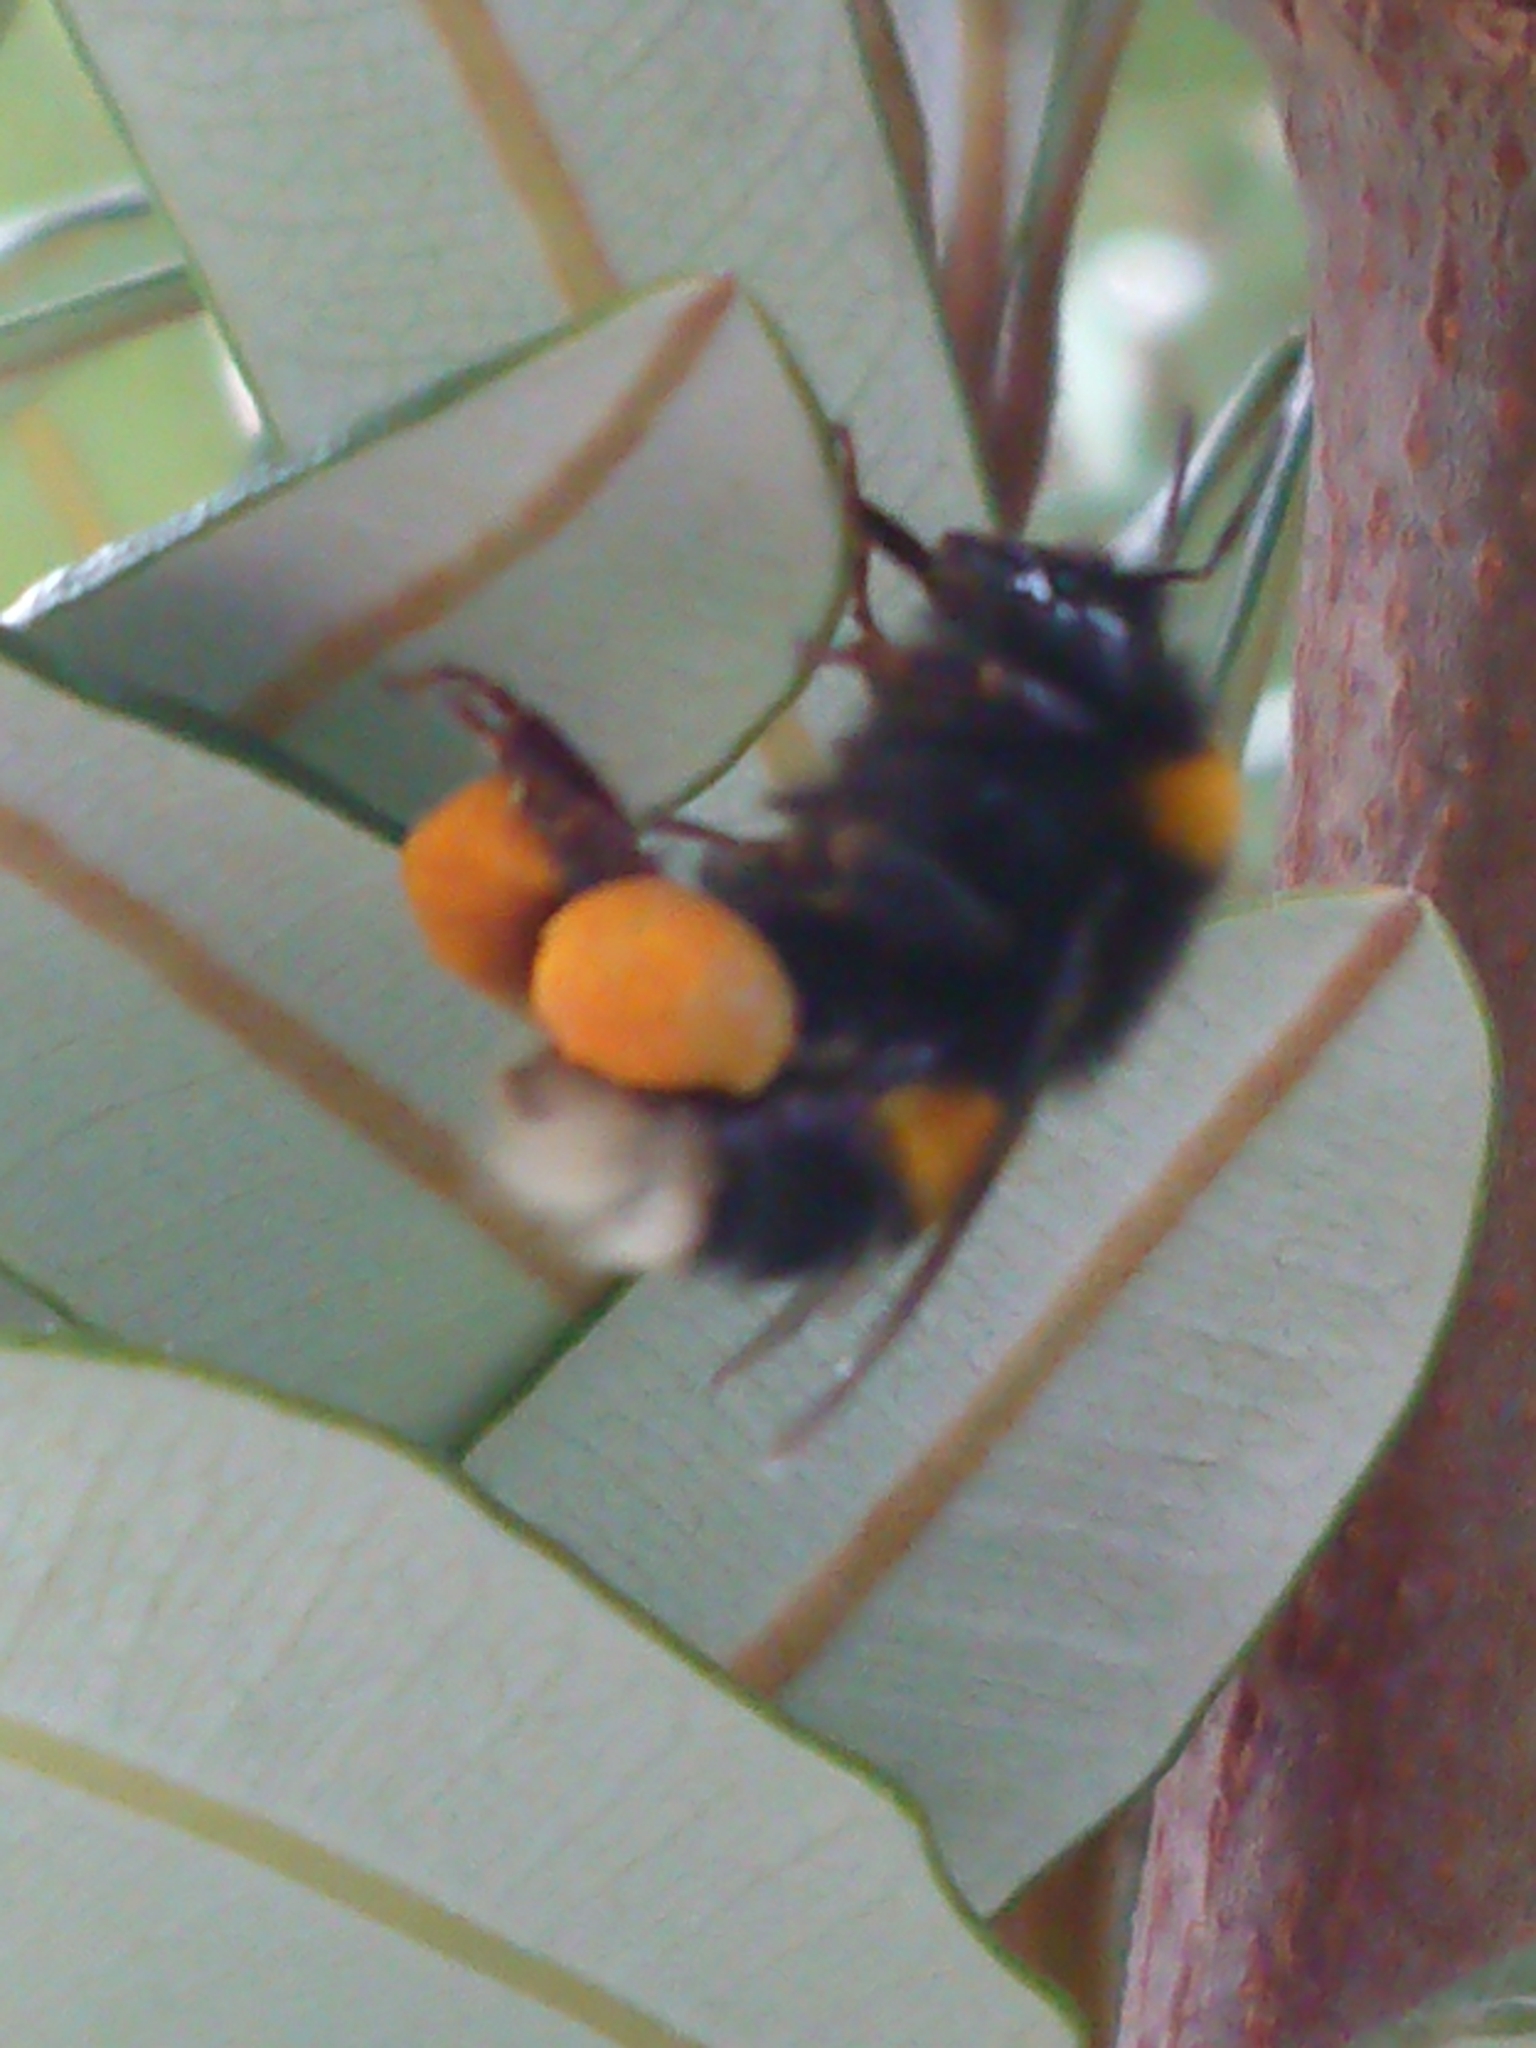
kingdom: Animalia
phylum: Arthropoda
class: Insecta
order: Hymenoptera
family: Apidae
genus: Bombus
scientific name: Bombus terrestris
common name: Buff-tailed bumblebee
